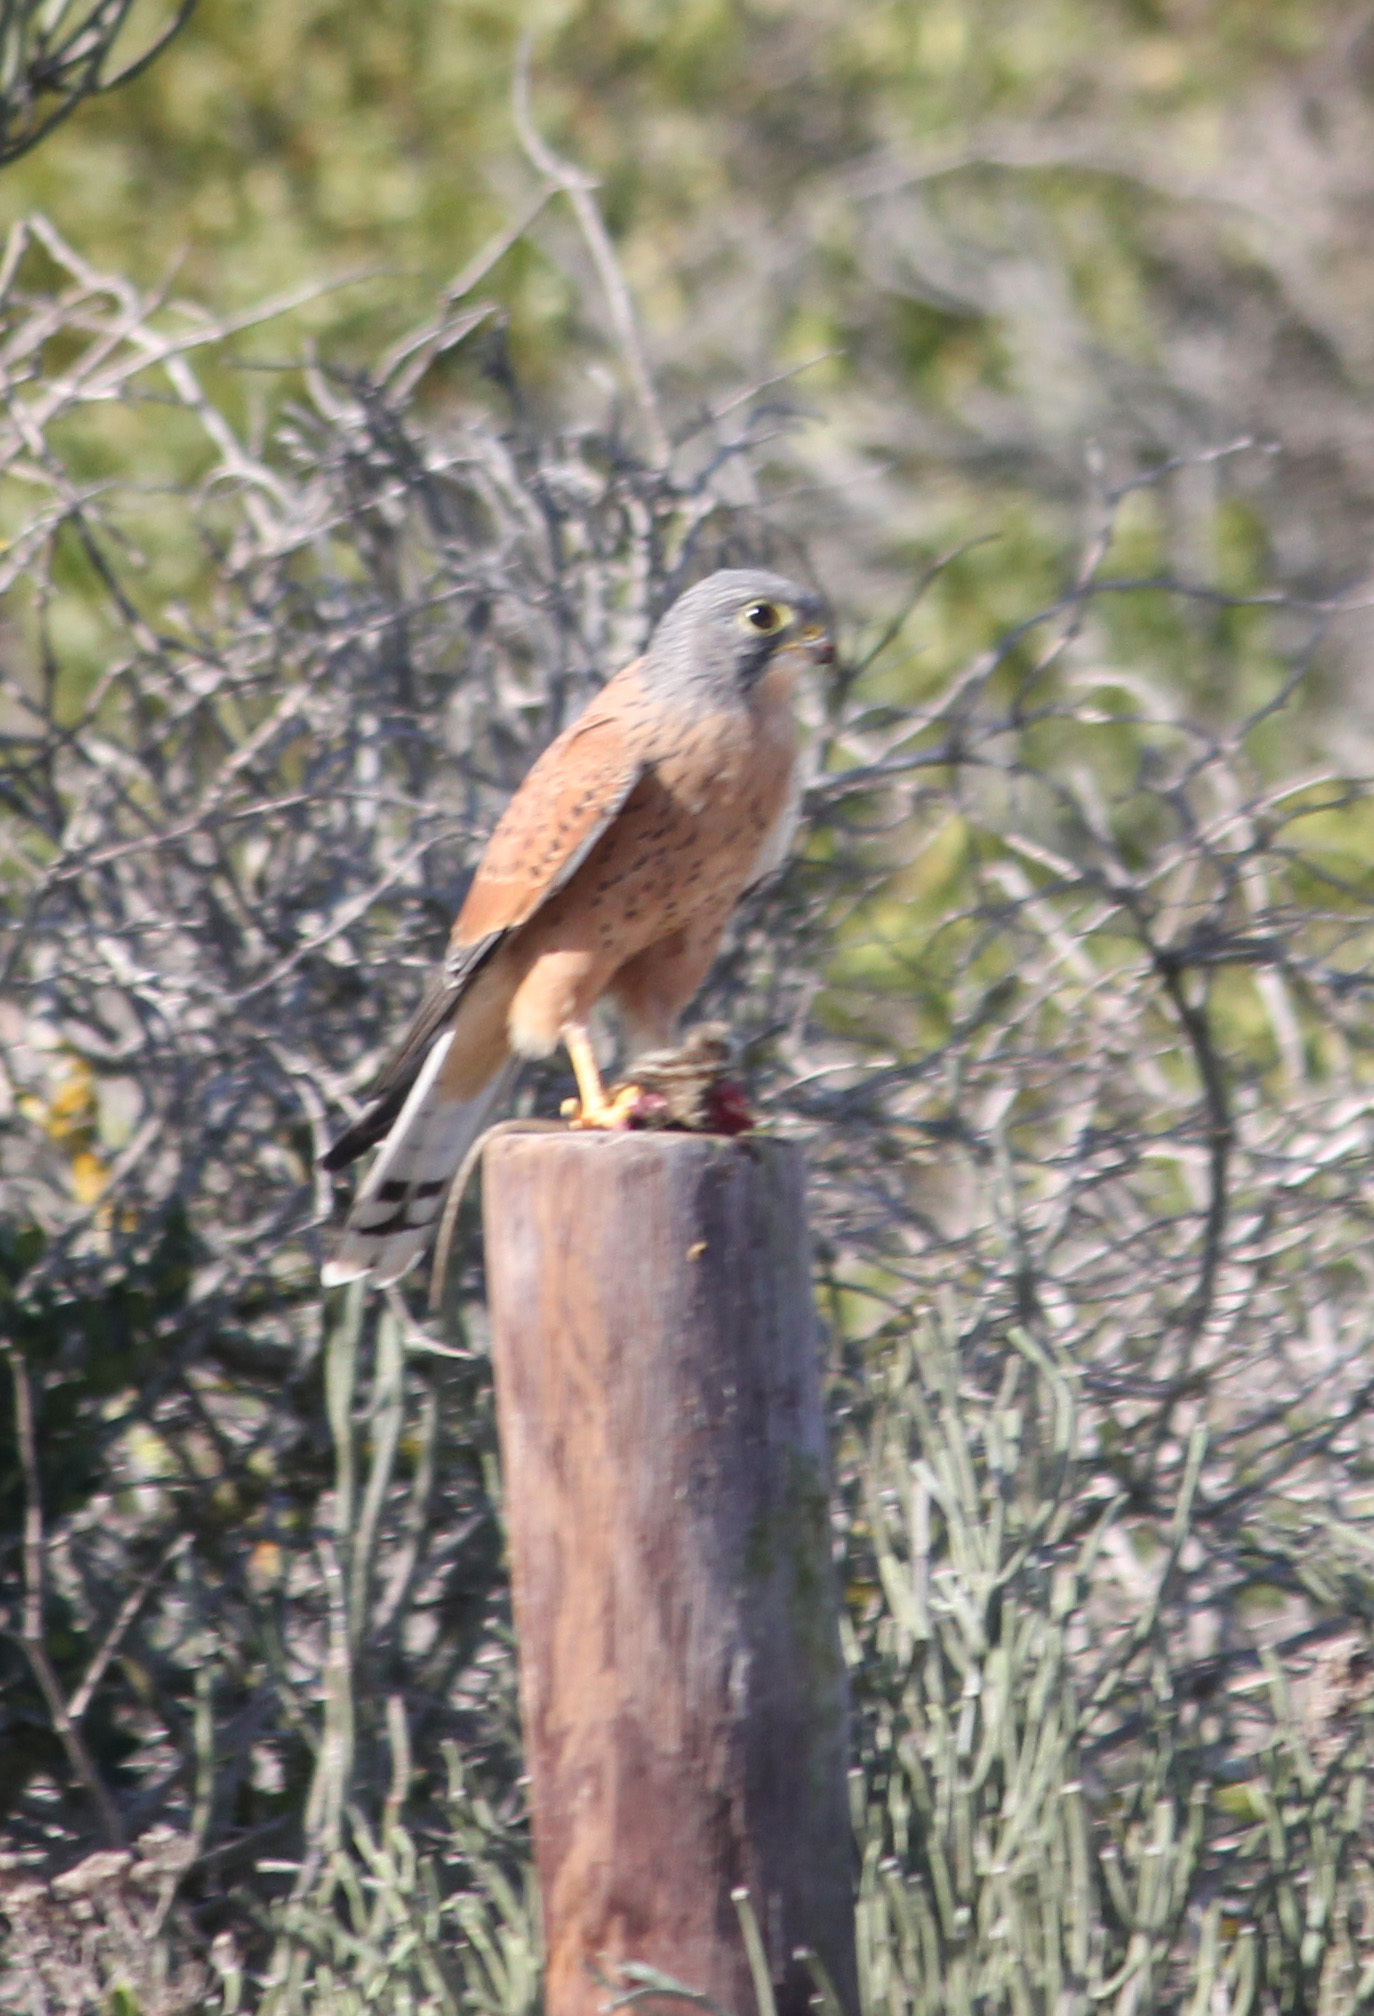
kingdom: Animalia
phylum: Chordata
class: Aves
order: Falconiformes
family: Falconidae
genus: Falco
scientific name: Falco rupicolus
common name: Rock kestrel
